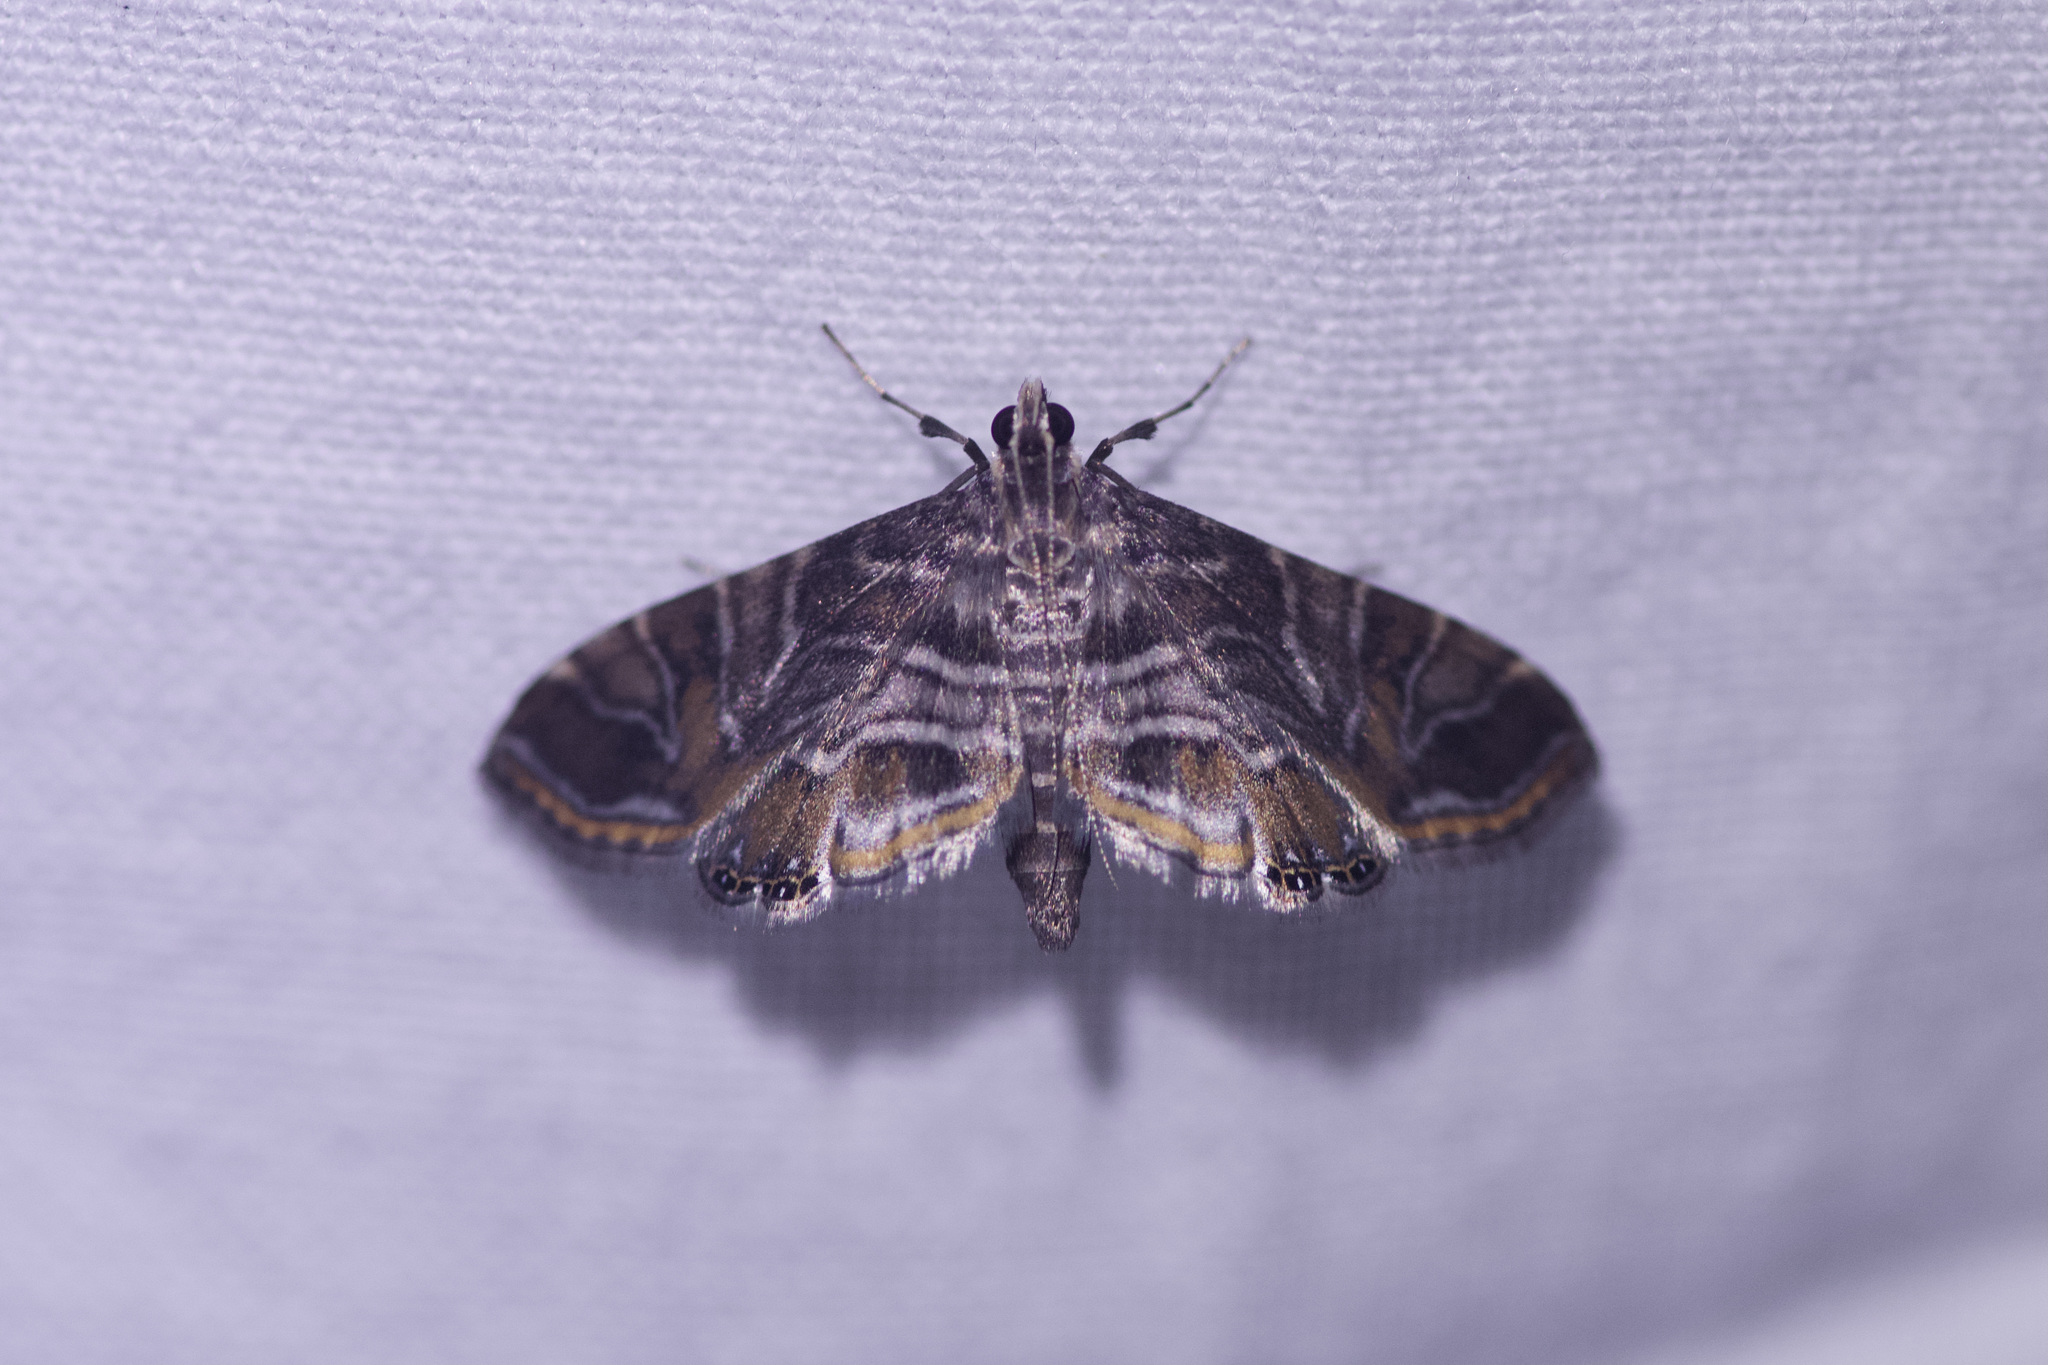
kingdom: Animalia
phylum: Arthropoda
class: Insecta
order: Lepidoptera
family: Crambidae
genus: Oligostigmoides
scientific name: Oligostigmoides
